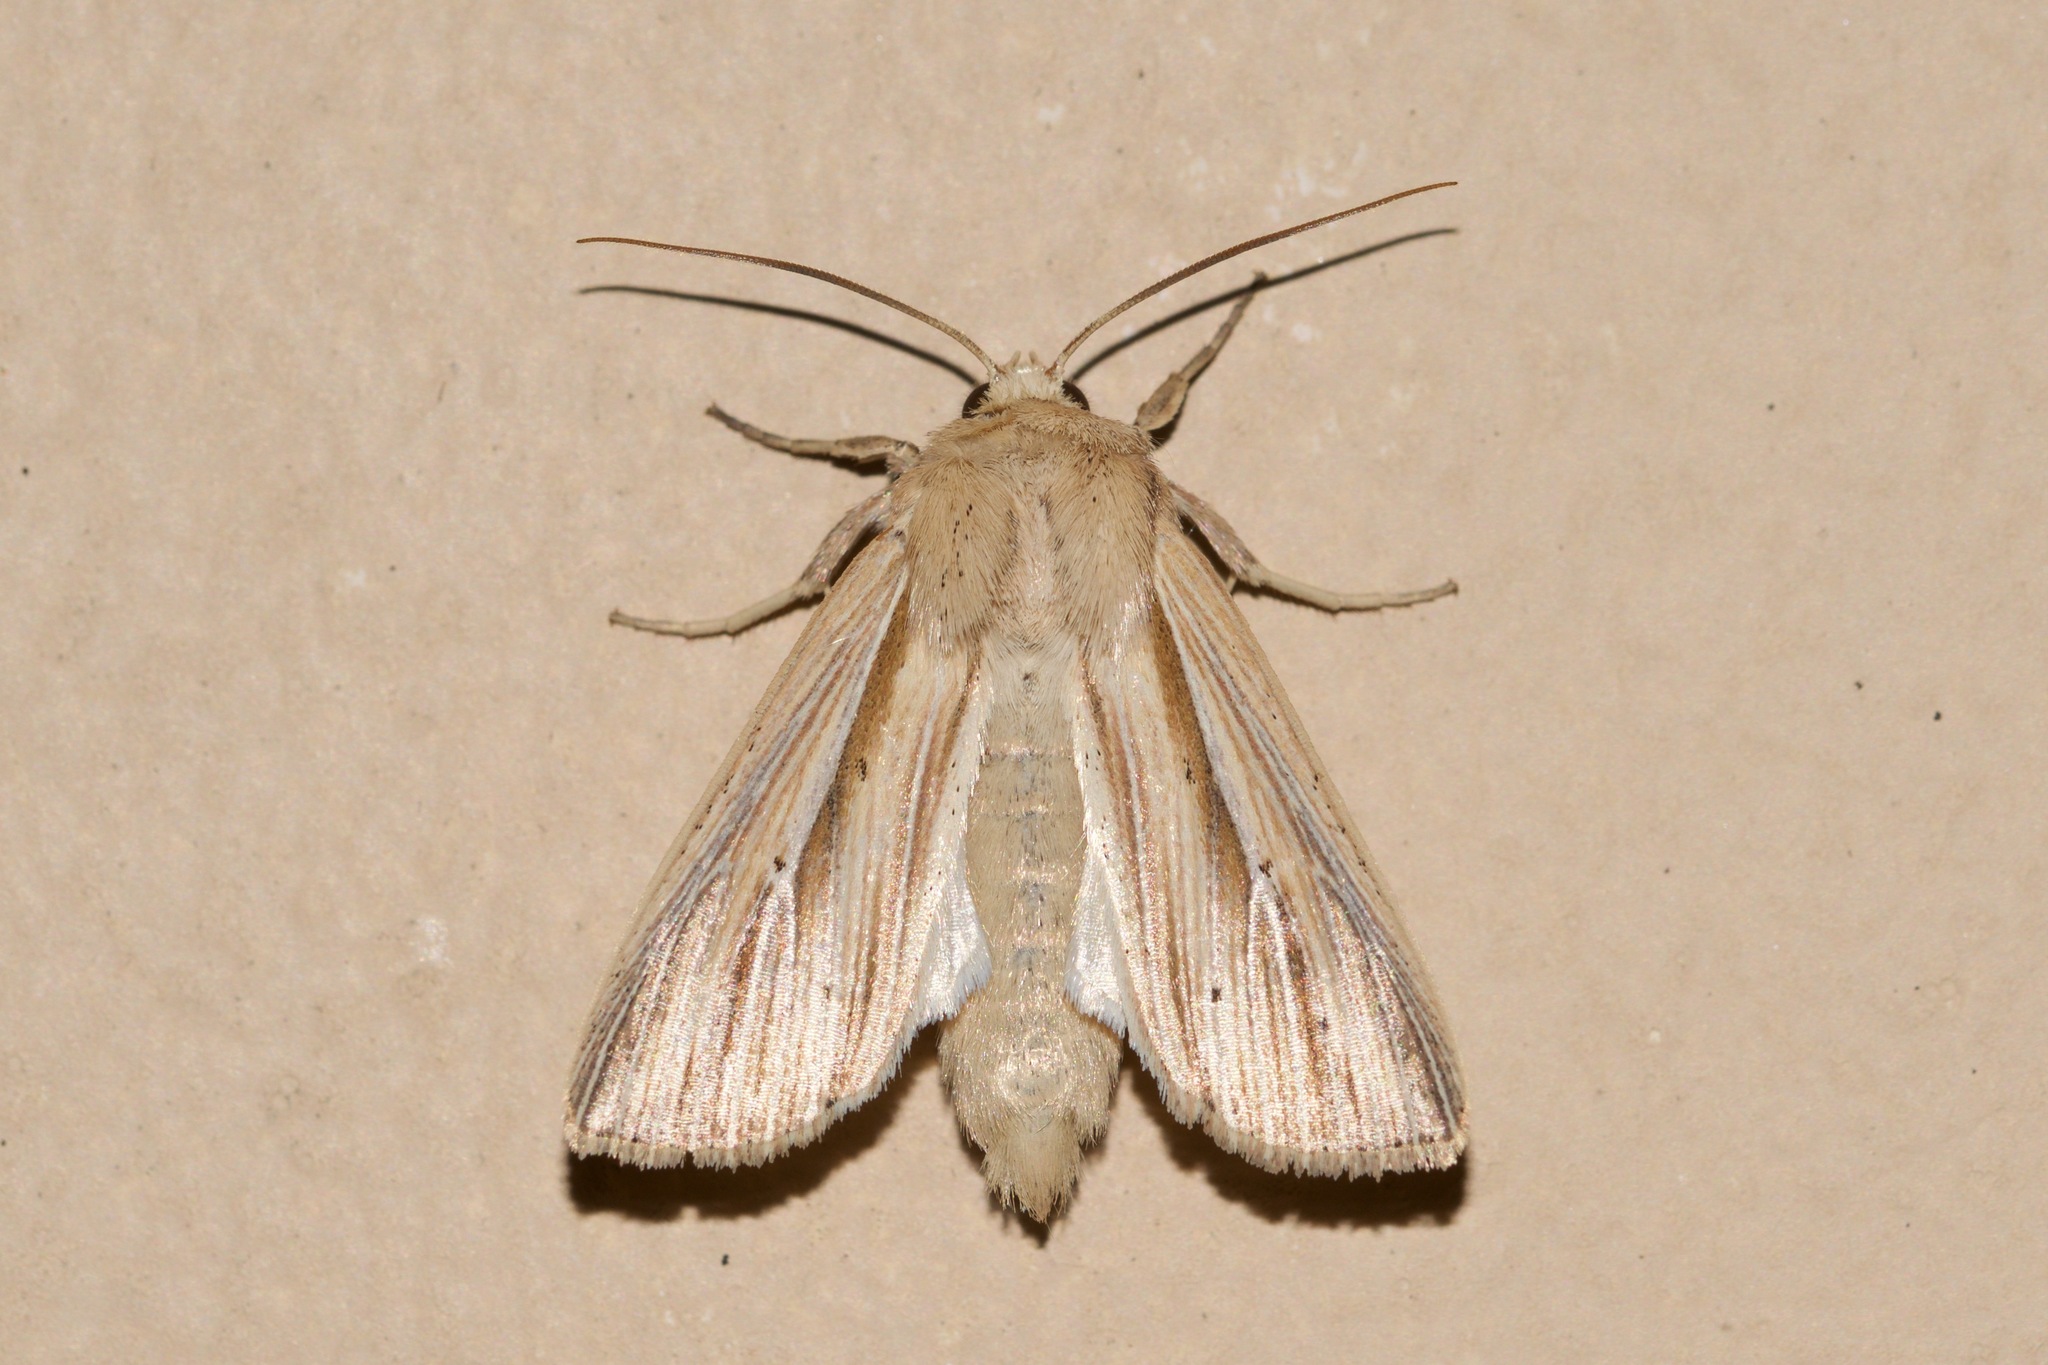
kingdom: Animalia
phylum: Arthropoda
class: Insecta
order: Lepidoptera
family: Noctuidae
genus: Leucania
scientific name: Leucania multilinea
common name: Many-lined wainscot
